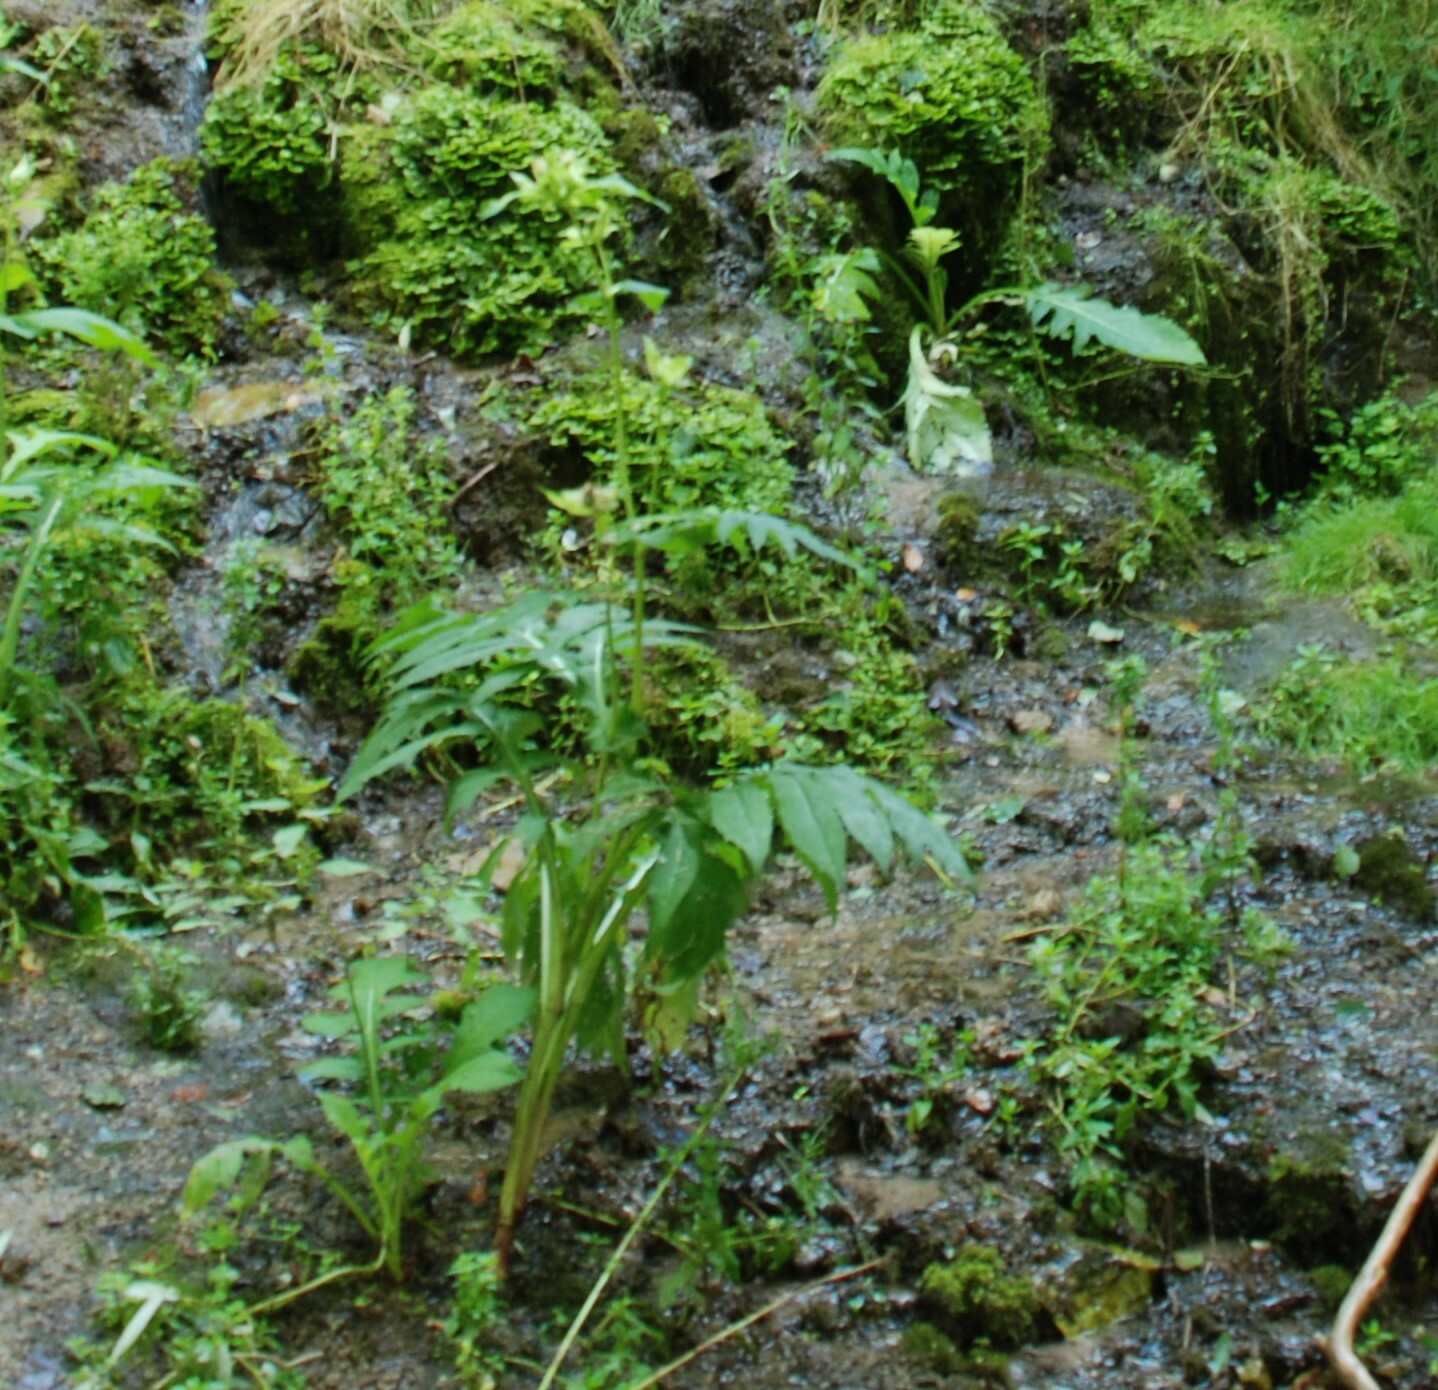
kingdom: Plantae
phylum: Tracheophyta
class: Magnoliopsida
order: Asterales
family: Asteraceae
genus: Cirsium
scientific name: Cirsium oleraceum
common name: Cabbage thistle
